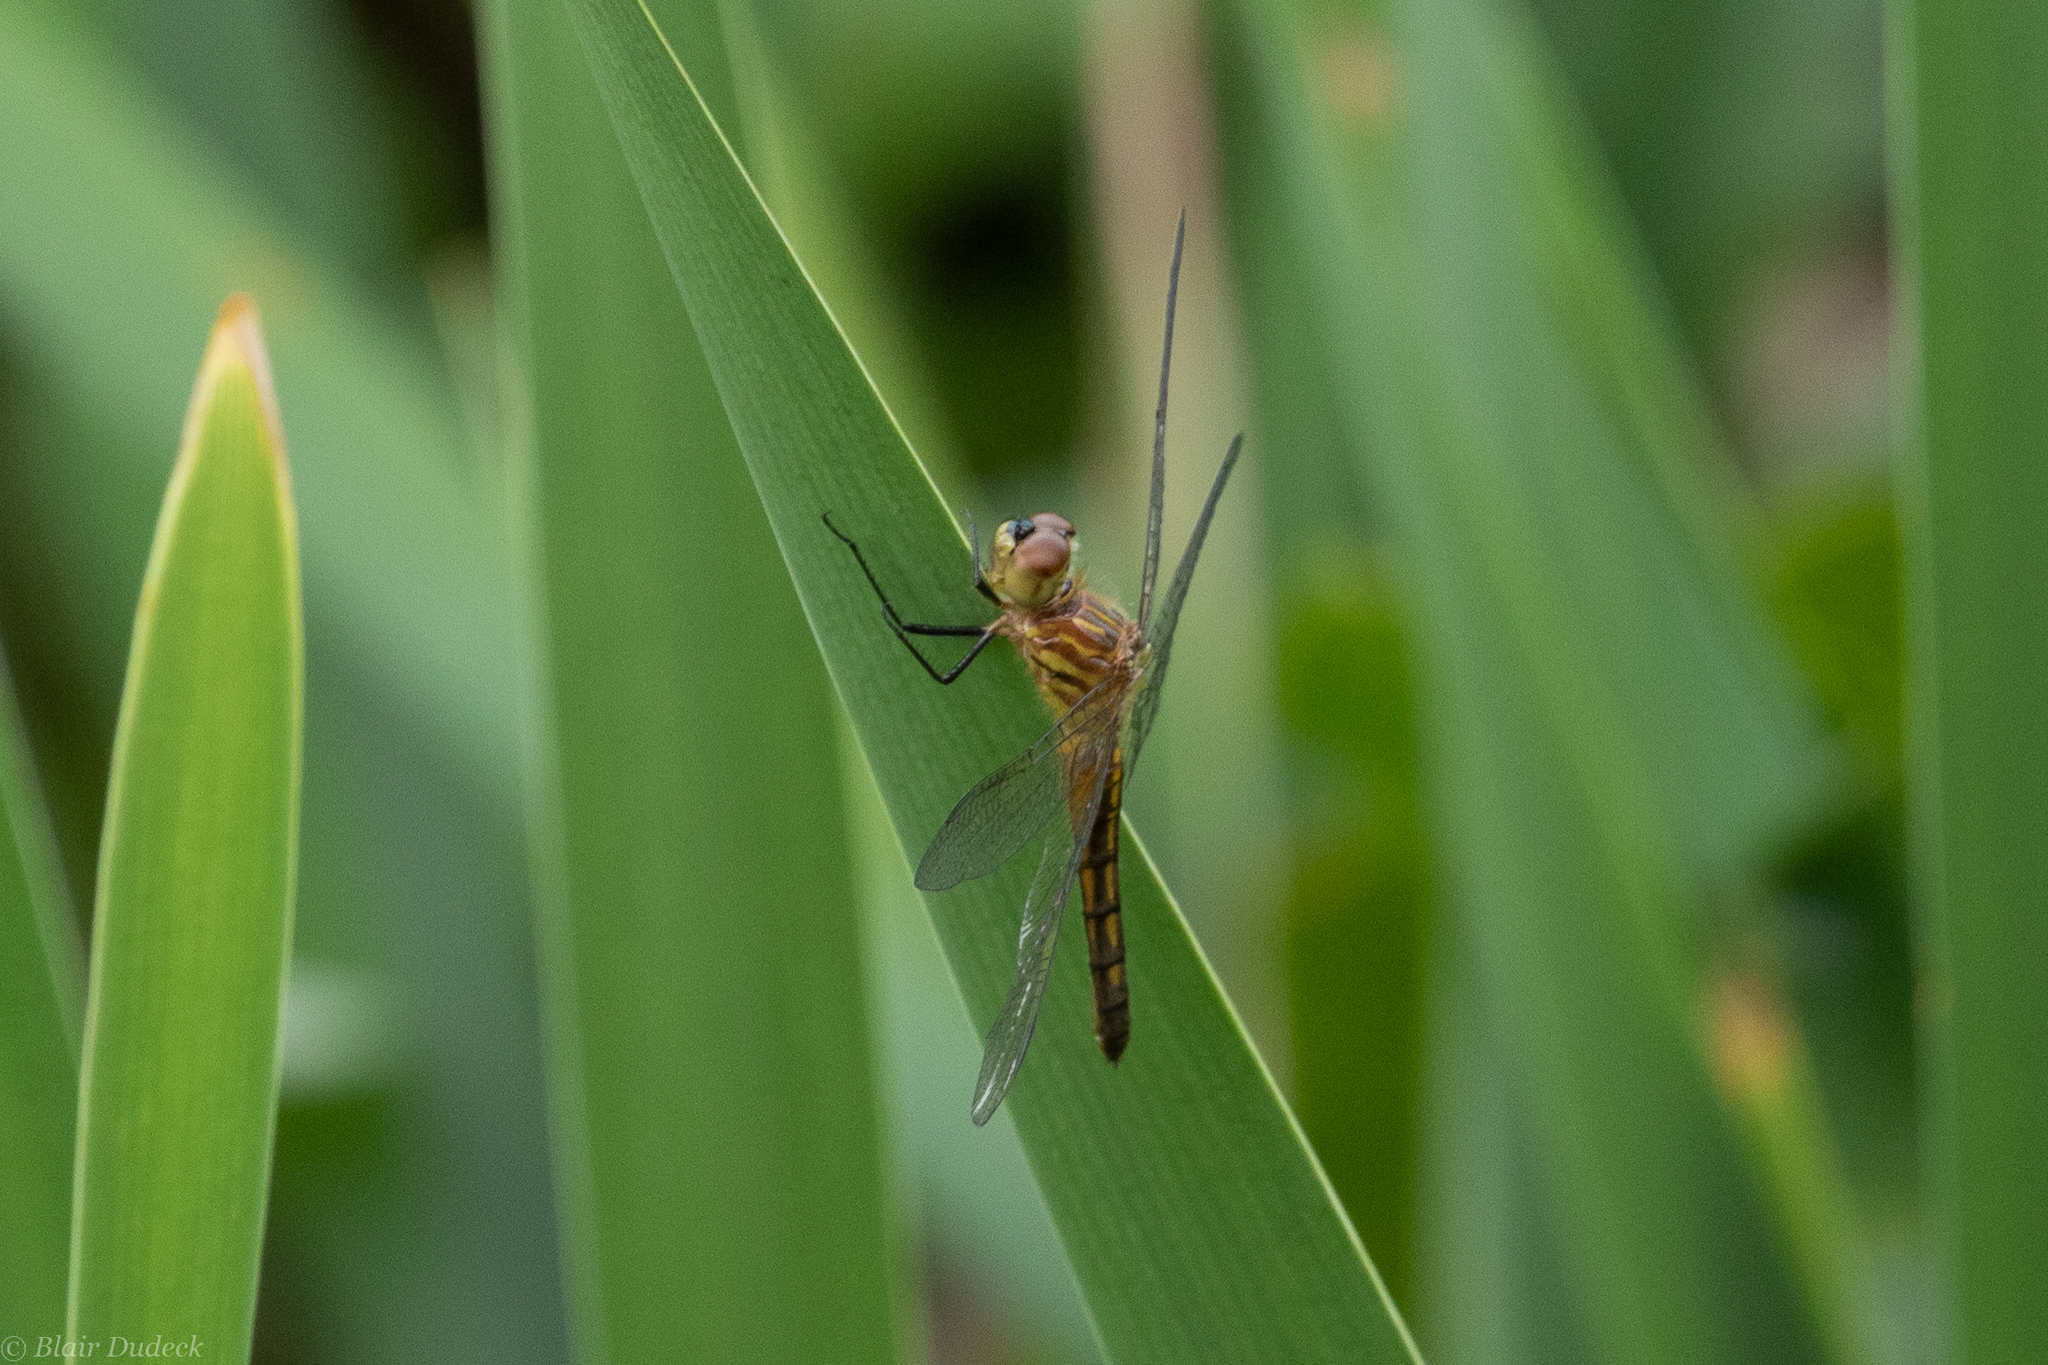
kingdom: Animalia
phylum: Arthropoda
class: Insecta
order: Odonata
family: Libellulidae
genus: Pachydiplax
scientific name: Pachydiplax longipennis
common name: Blue dasher
